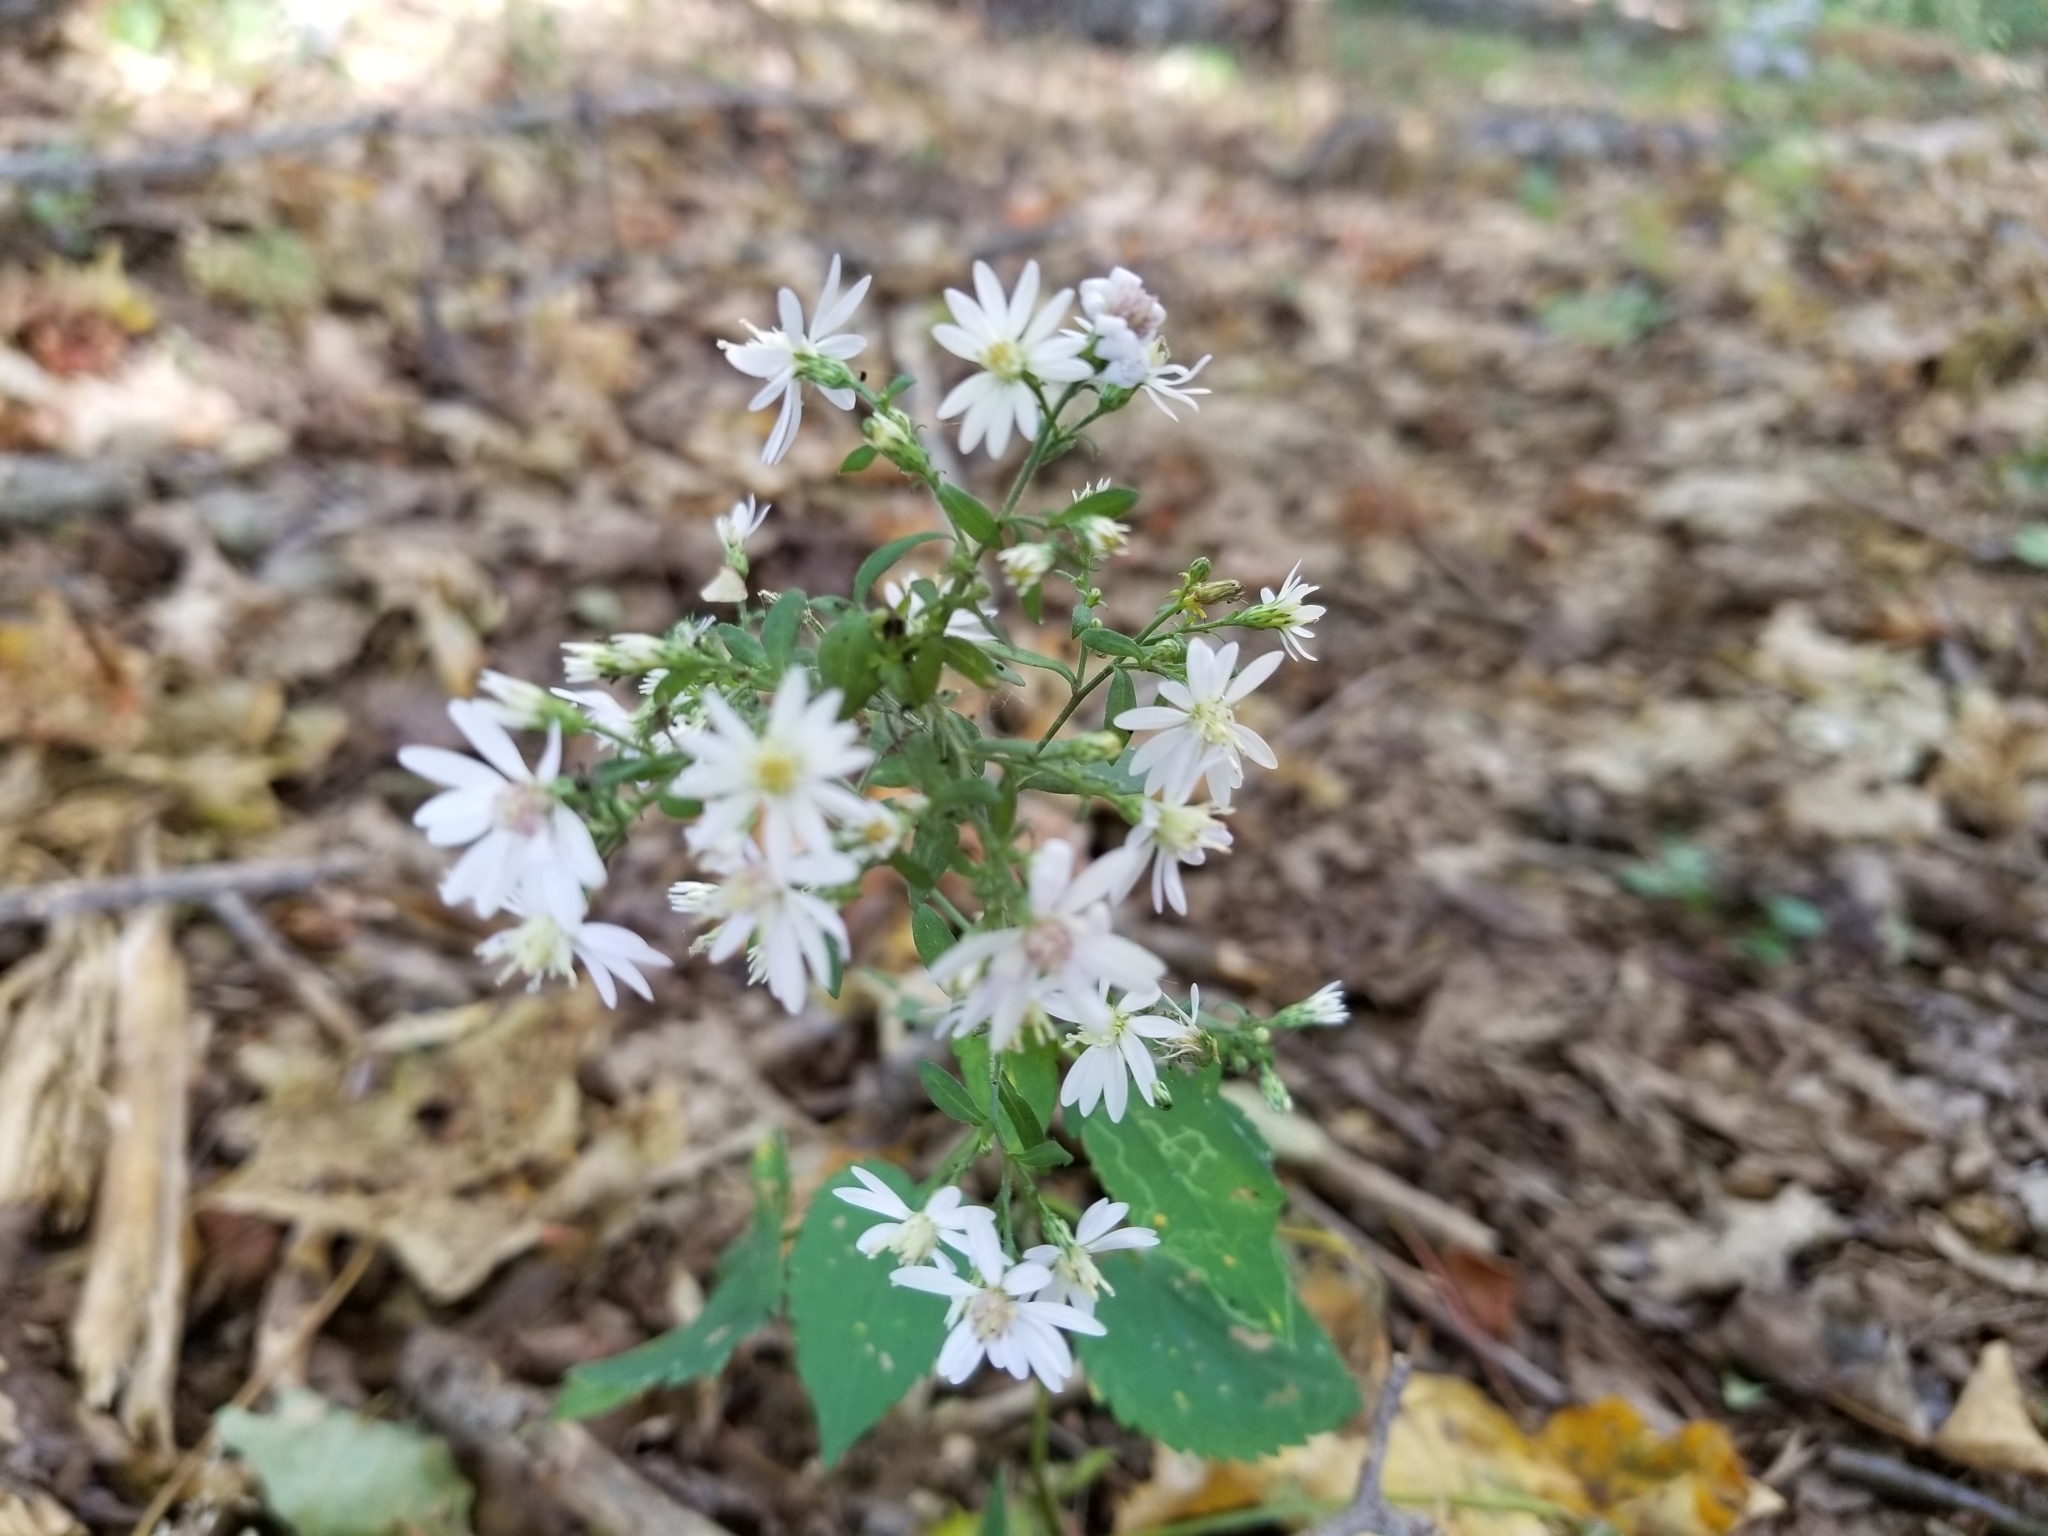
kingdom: Plantae
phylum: Tracheophyta
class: Magnoliopsida
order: Asterales
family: Asteraceae
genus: Symphyotrichum
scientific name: Symphyotrichum cordifolium
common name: Beeweed
